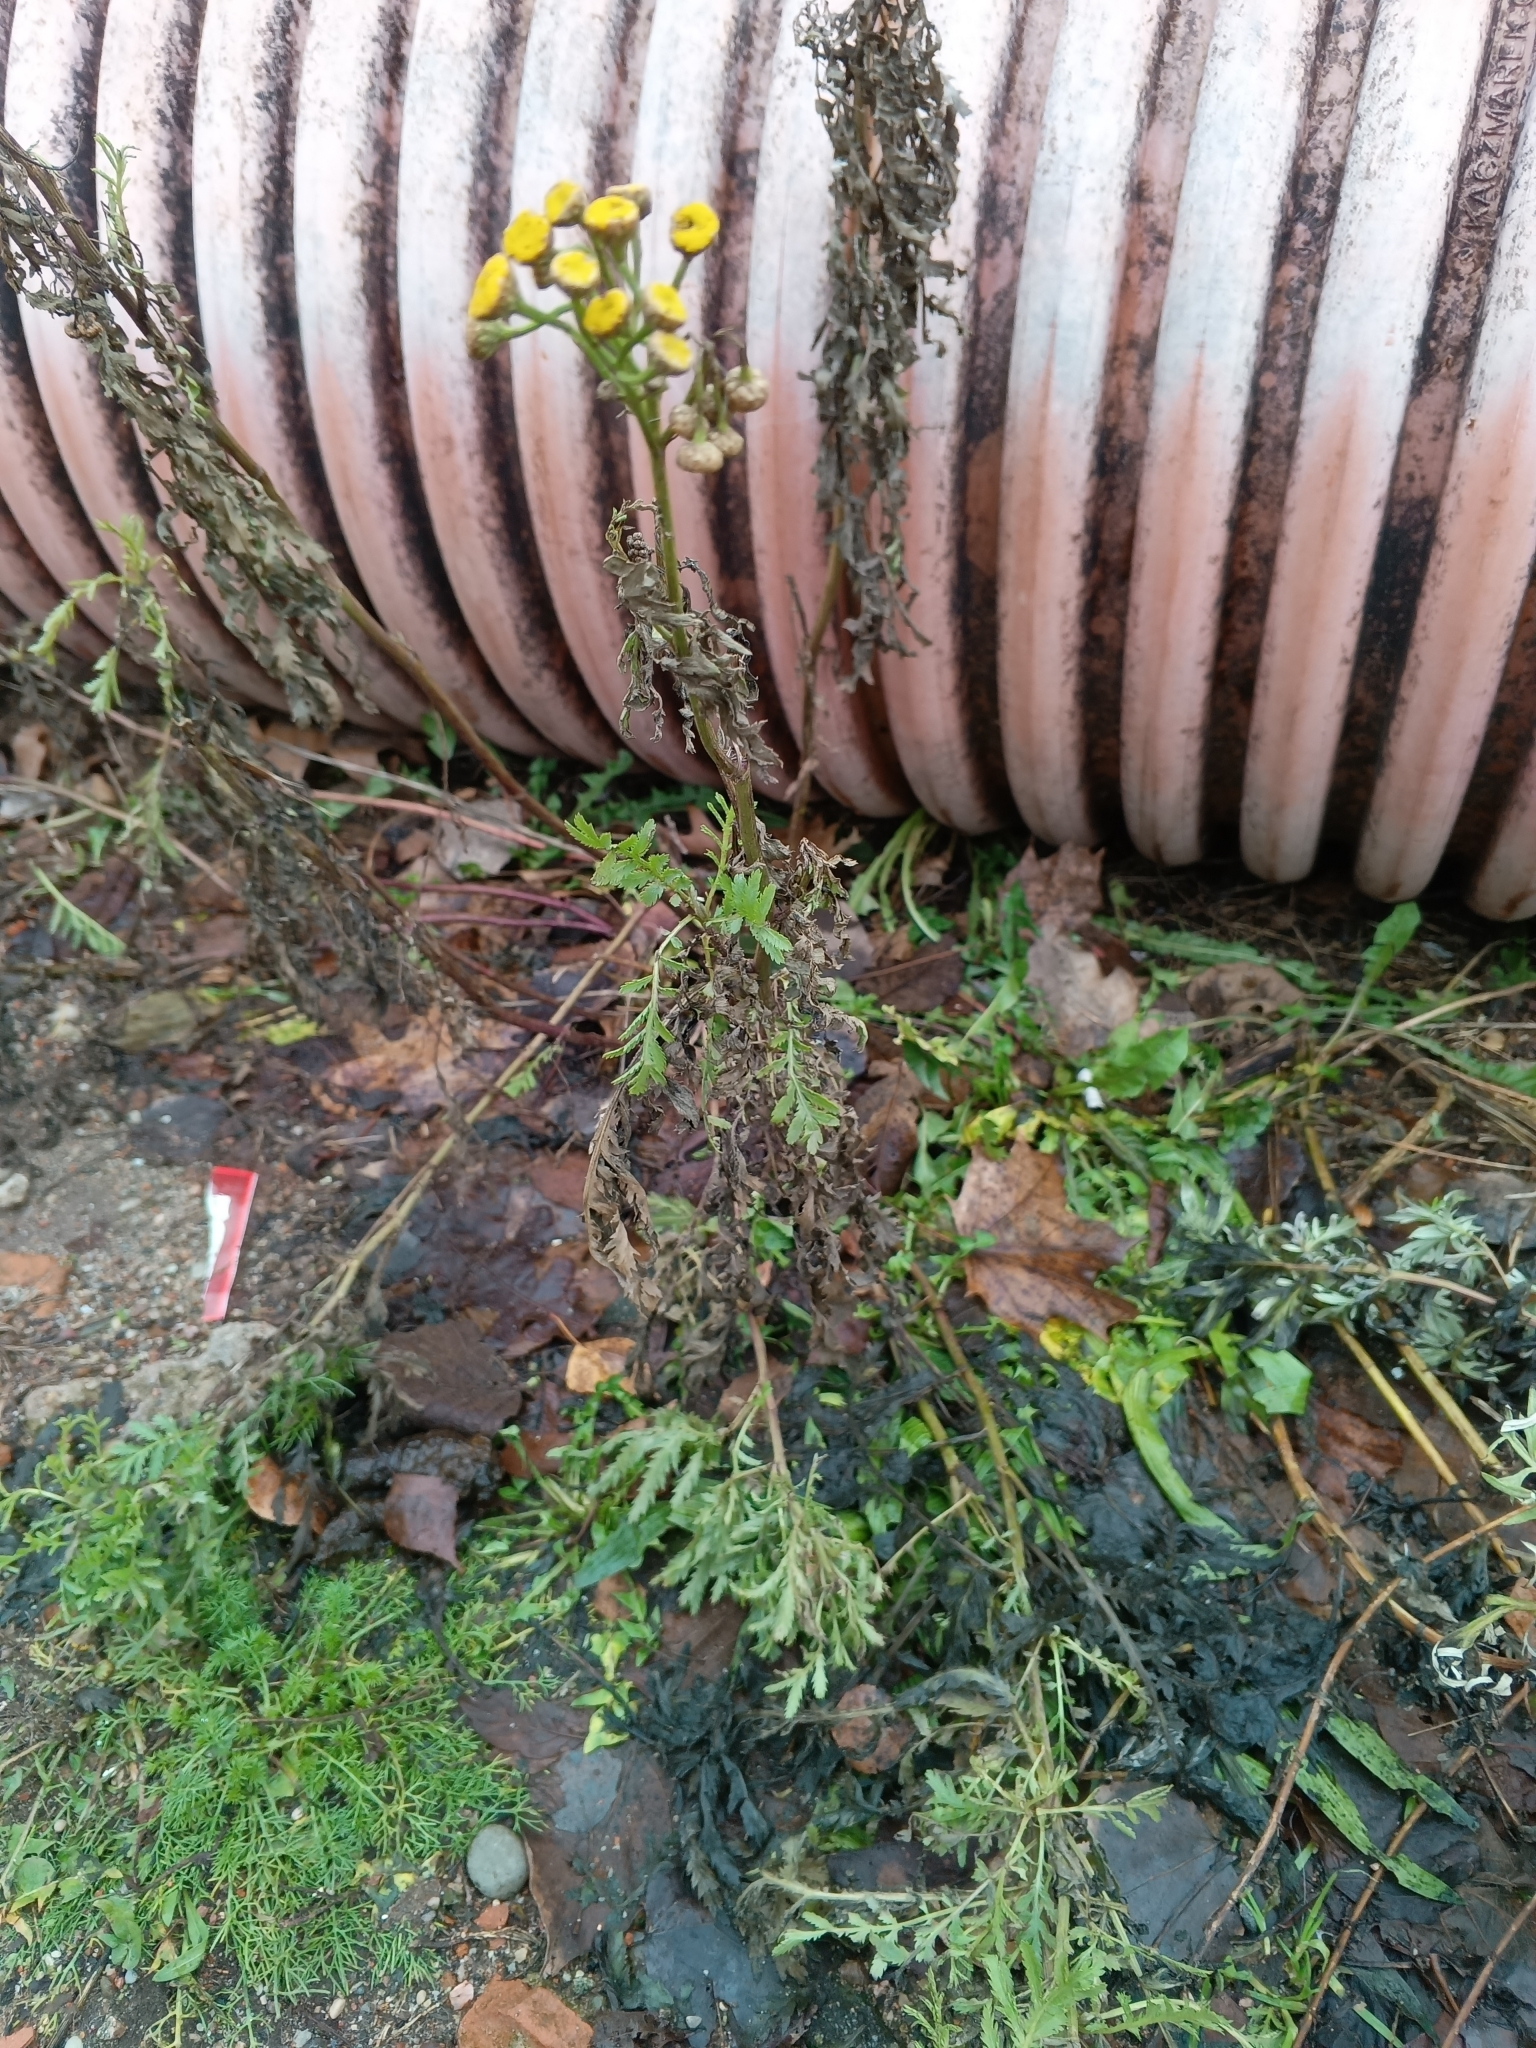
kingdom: Plantae
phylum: Tracheophyta
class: Magnoliopsida
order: Asterales
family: Asteraceae
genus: Tanacetum
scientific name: Tanacetum vulgare
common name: Common tansy
